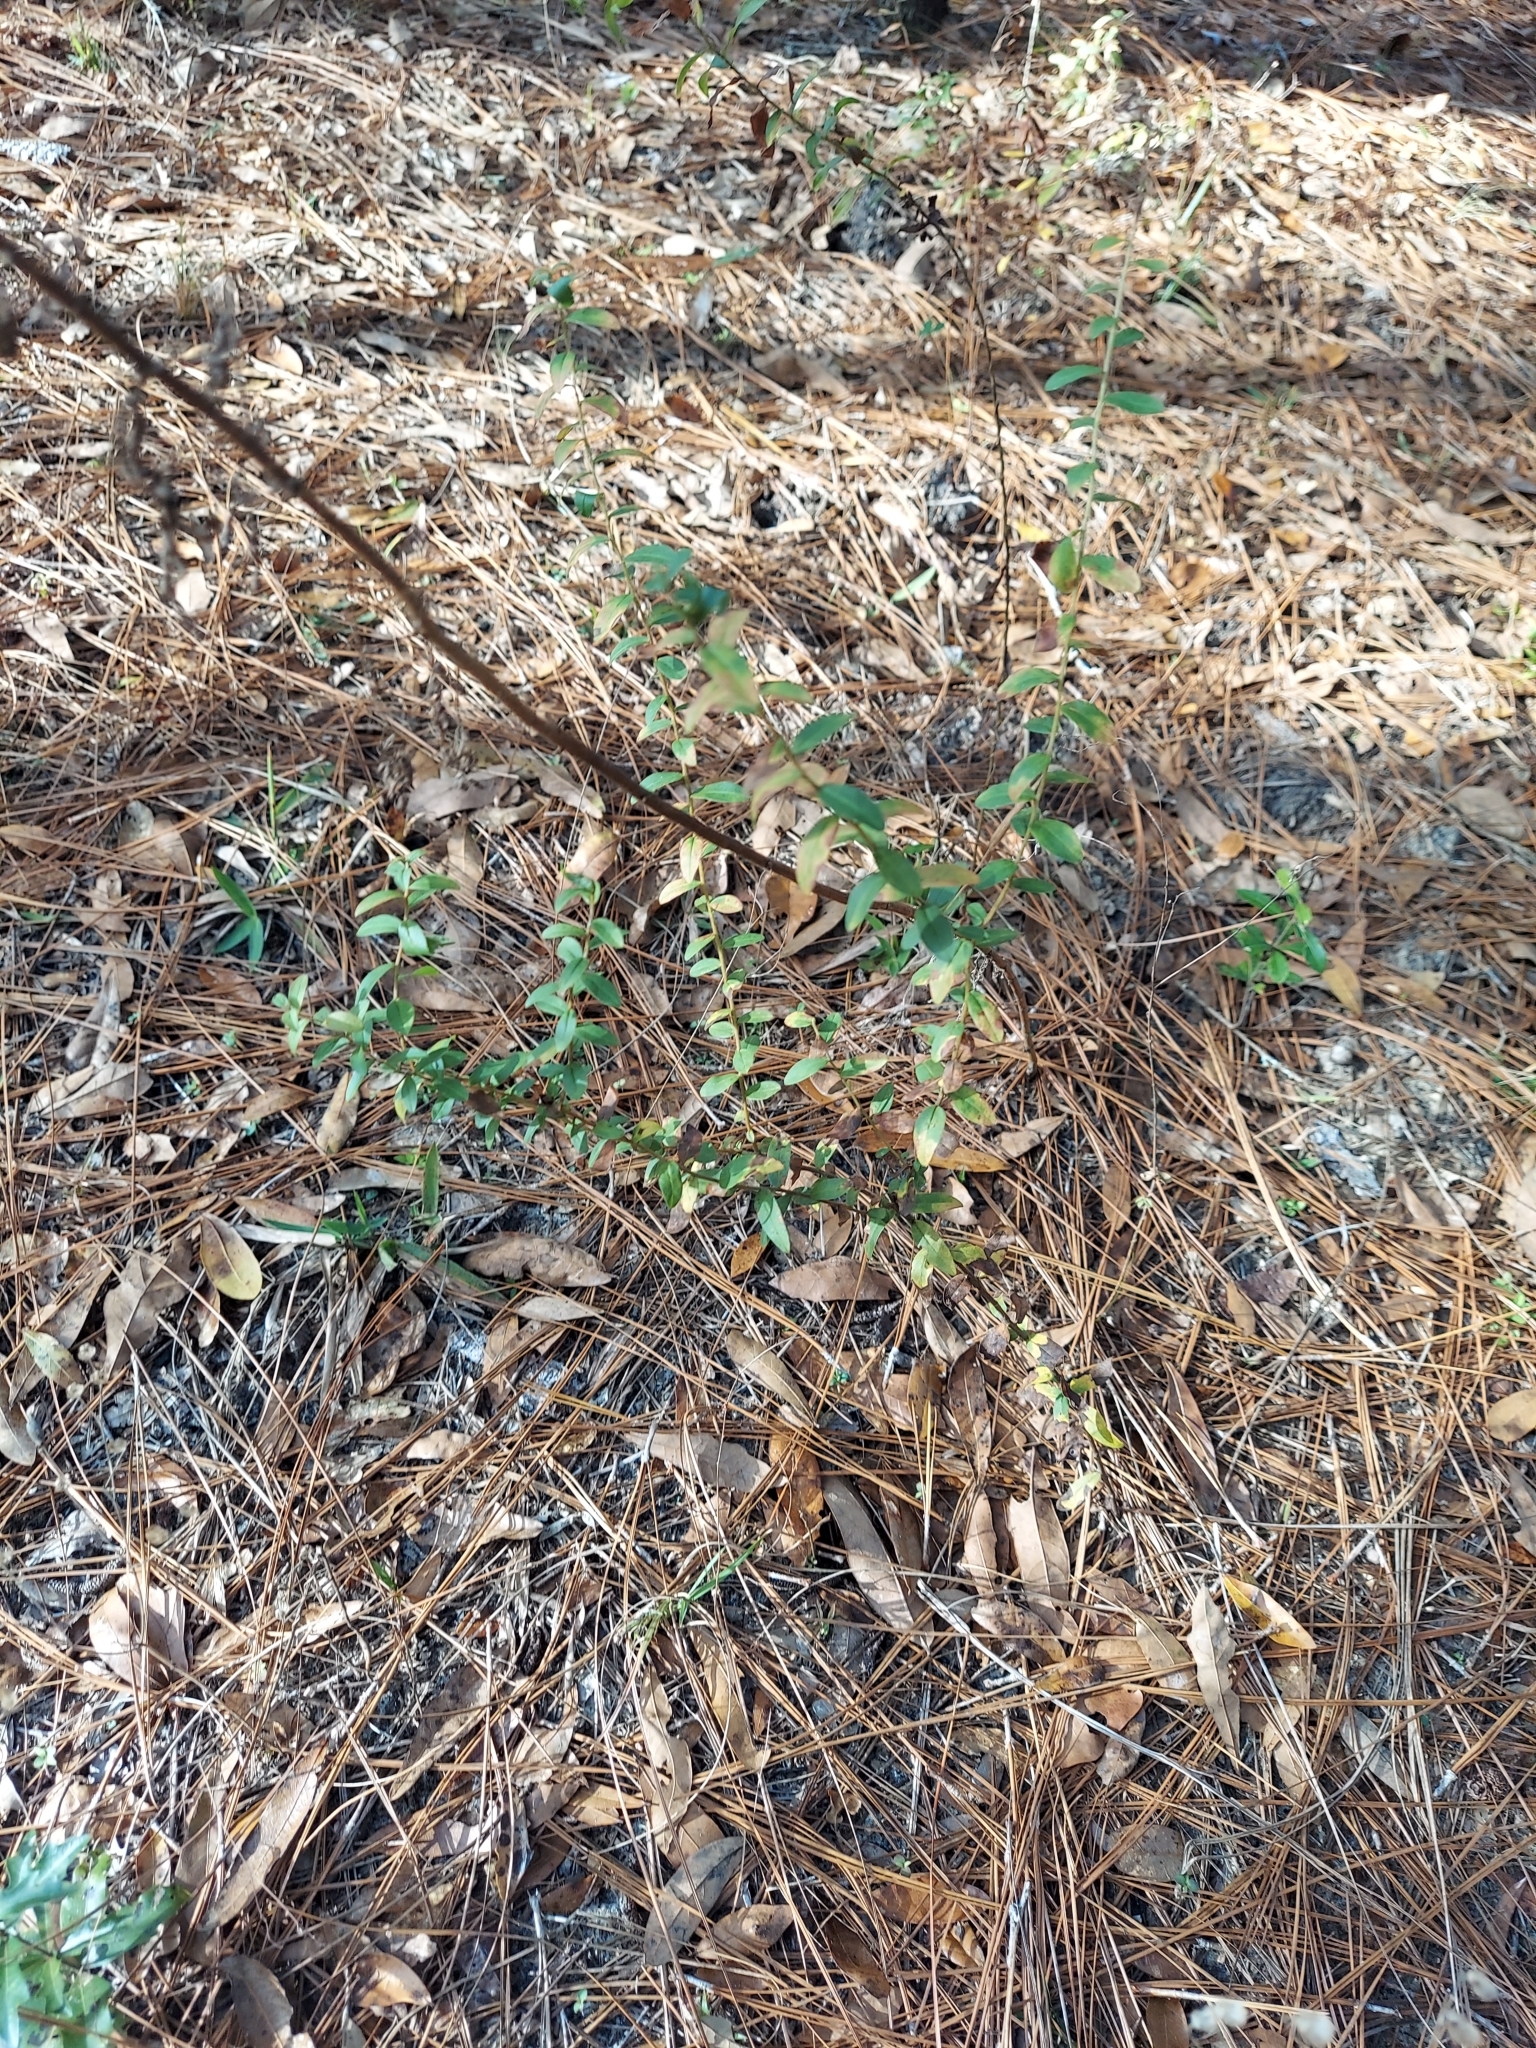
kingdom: Plantae
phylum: Tracheophyta
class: Magnoliopsida
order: Asterales
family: Asteraceae
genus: Solidago
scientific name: Solidago chapmanii
